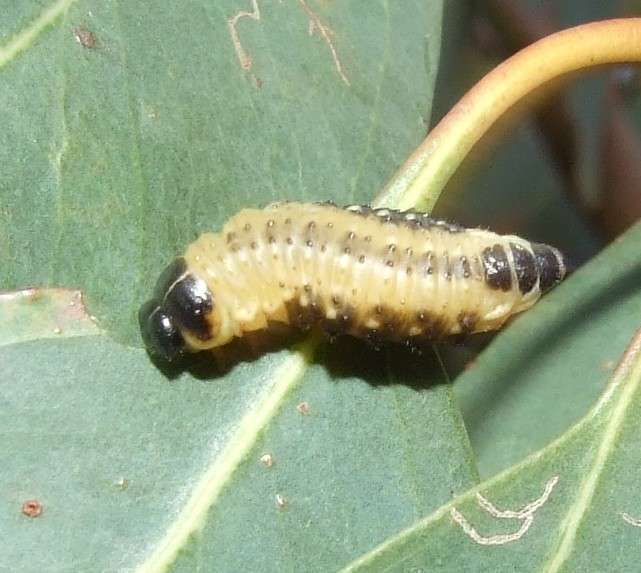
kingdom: Animalia
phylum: Arthropoda
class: Insecta
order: Coleoptera
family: Chrysomelidae
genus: Paropsis
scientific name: Paropsis
